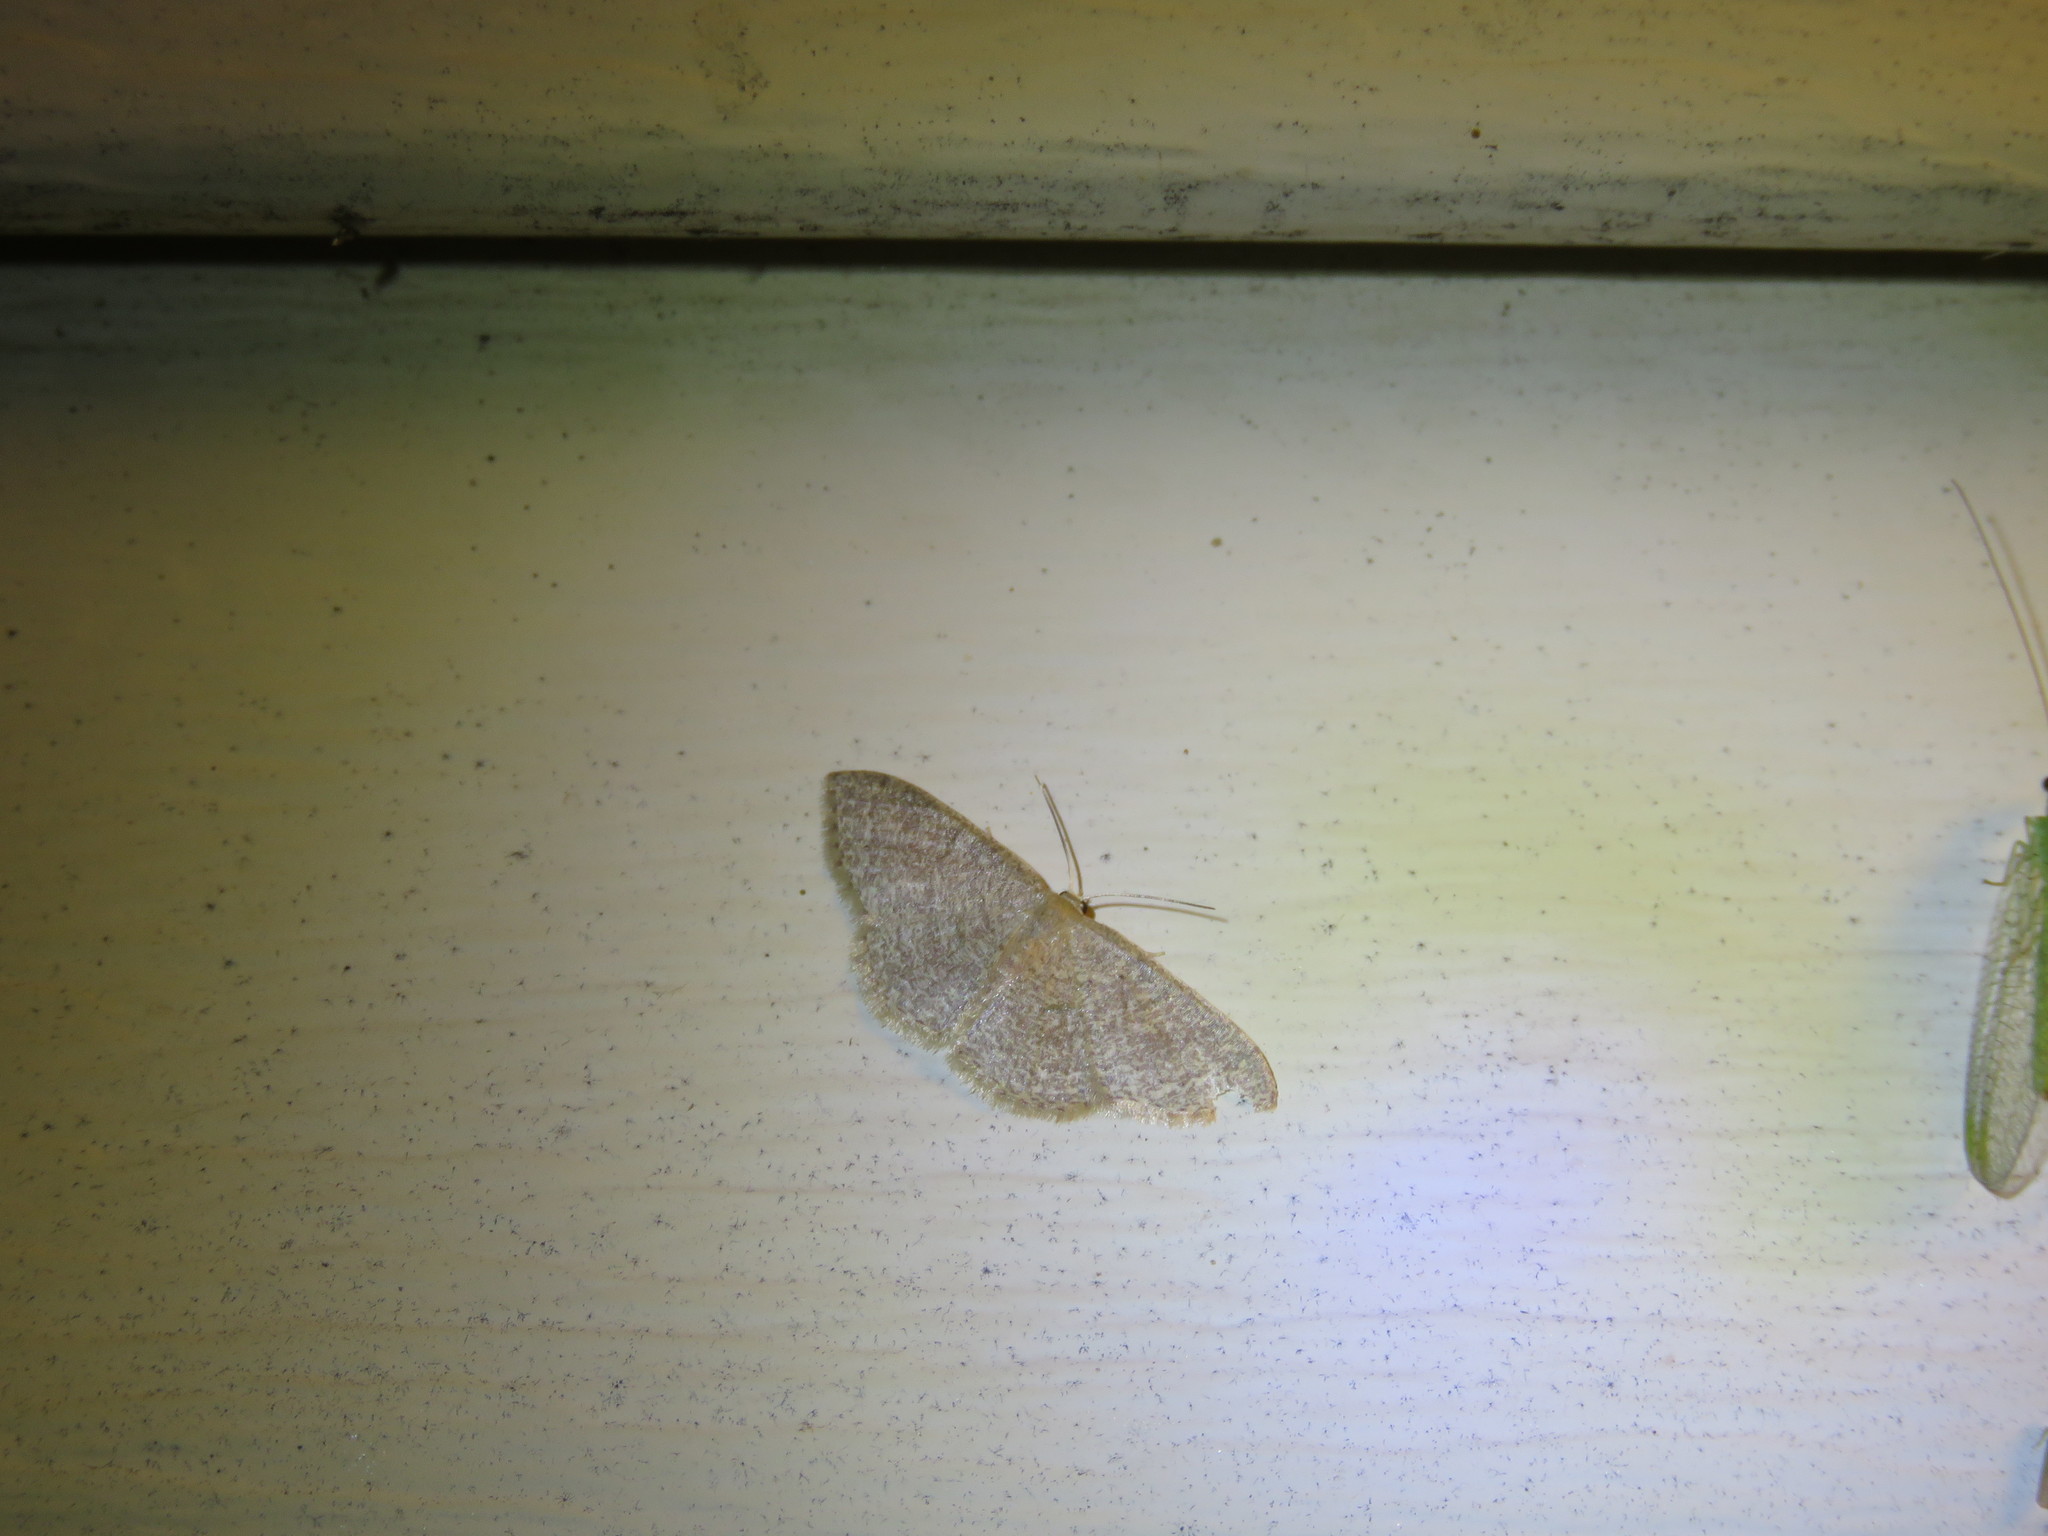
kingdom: Animalia
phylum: Arthropoda
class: Insecta
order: Lepidoptera
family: Geometridae
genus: Pleuroprucha
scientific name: Pleuroprucha insulsaria
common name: Common tan wave
